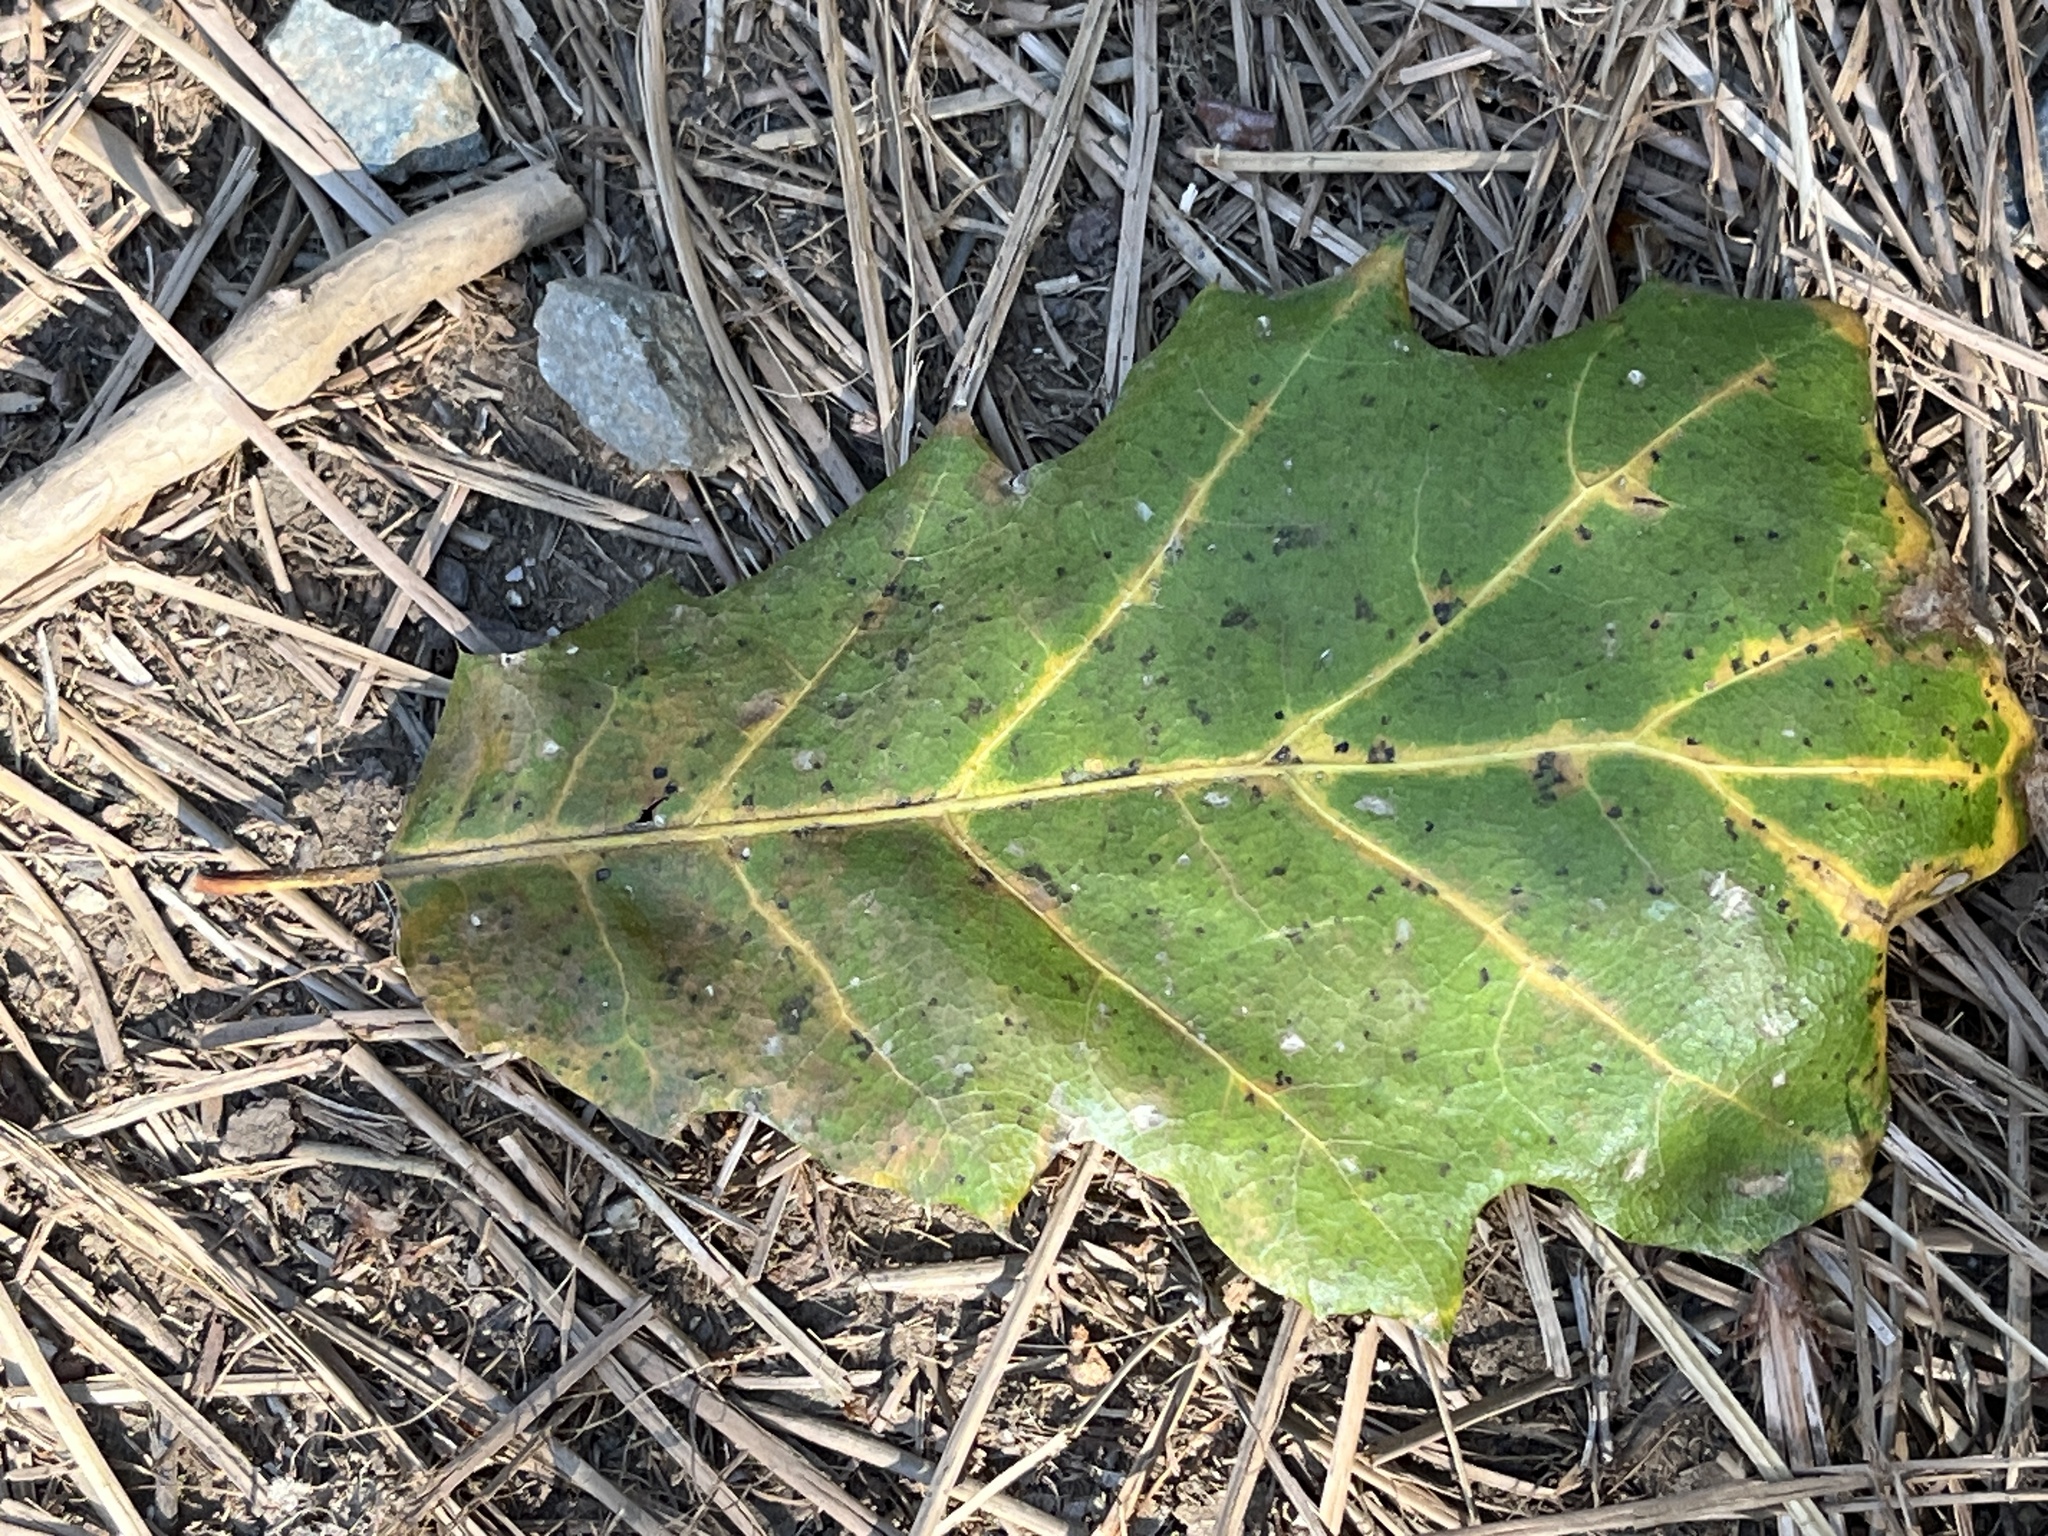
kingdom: Plantae
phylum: Tracheophyta
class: Magnoliopsida
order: Fagales
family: Fagaceae
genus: Quercus
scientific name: Quercus morehus
